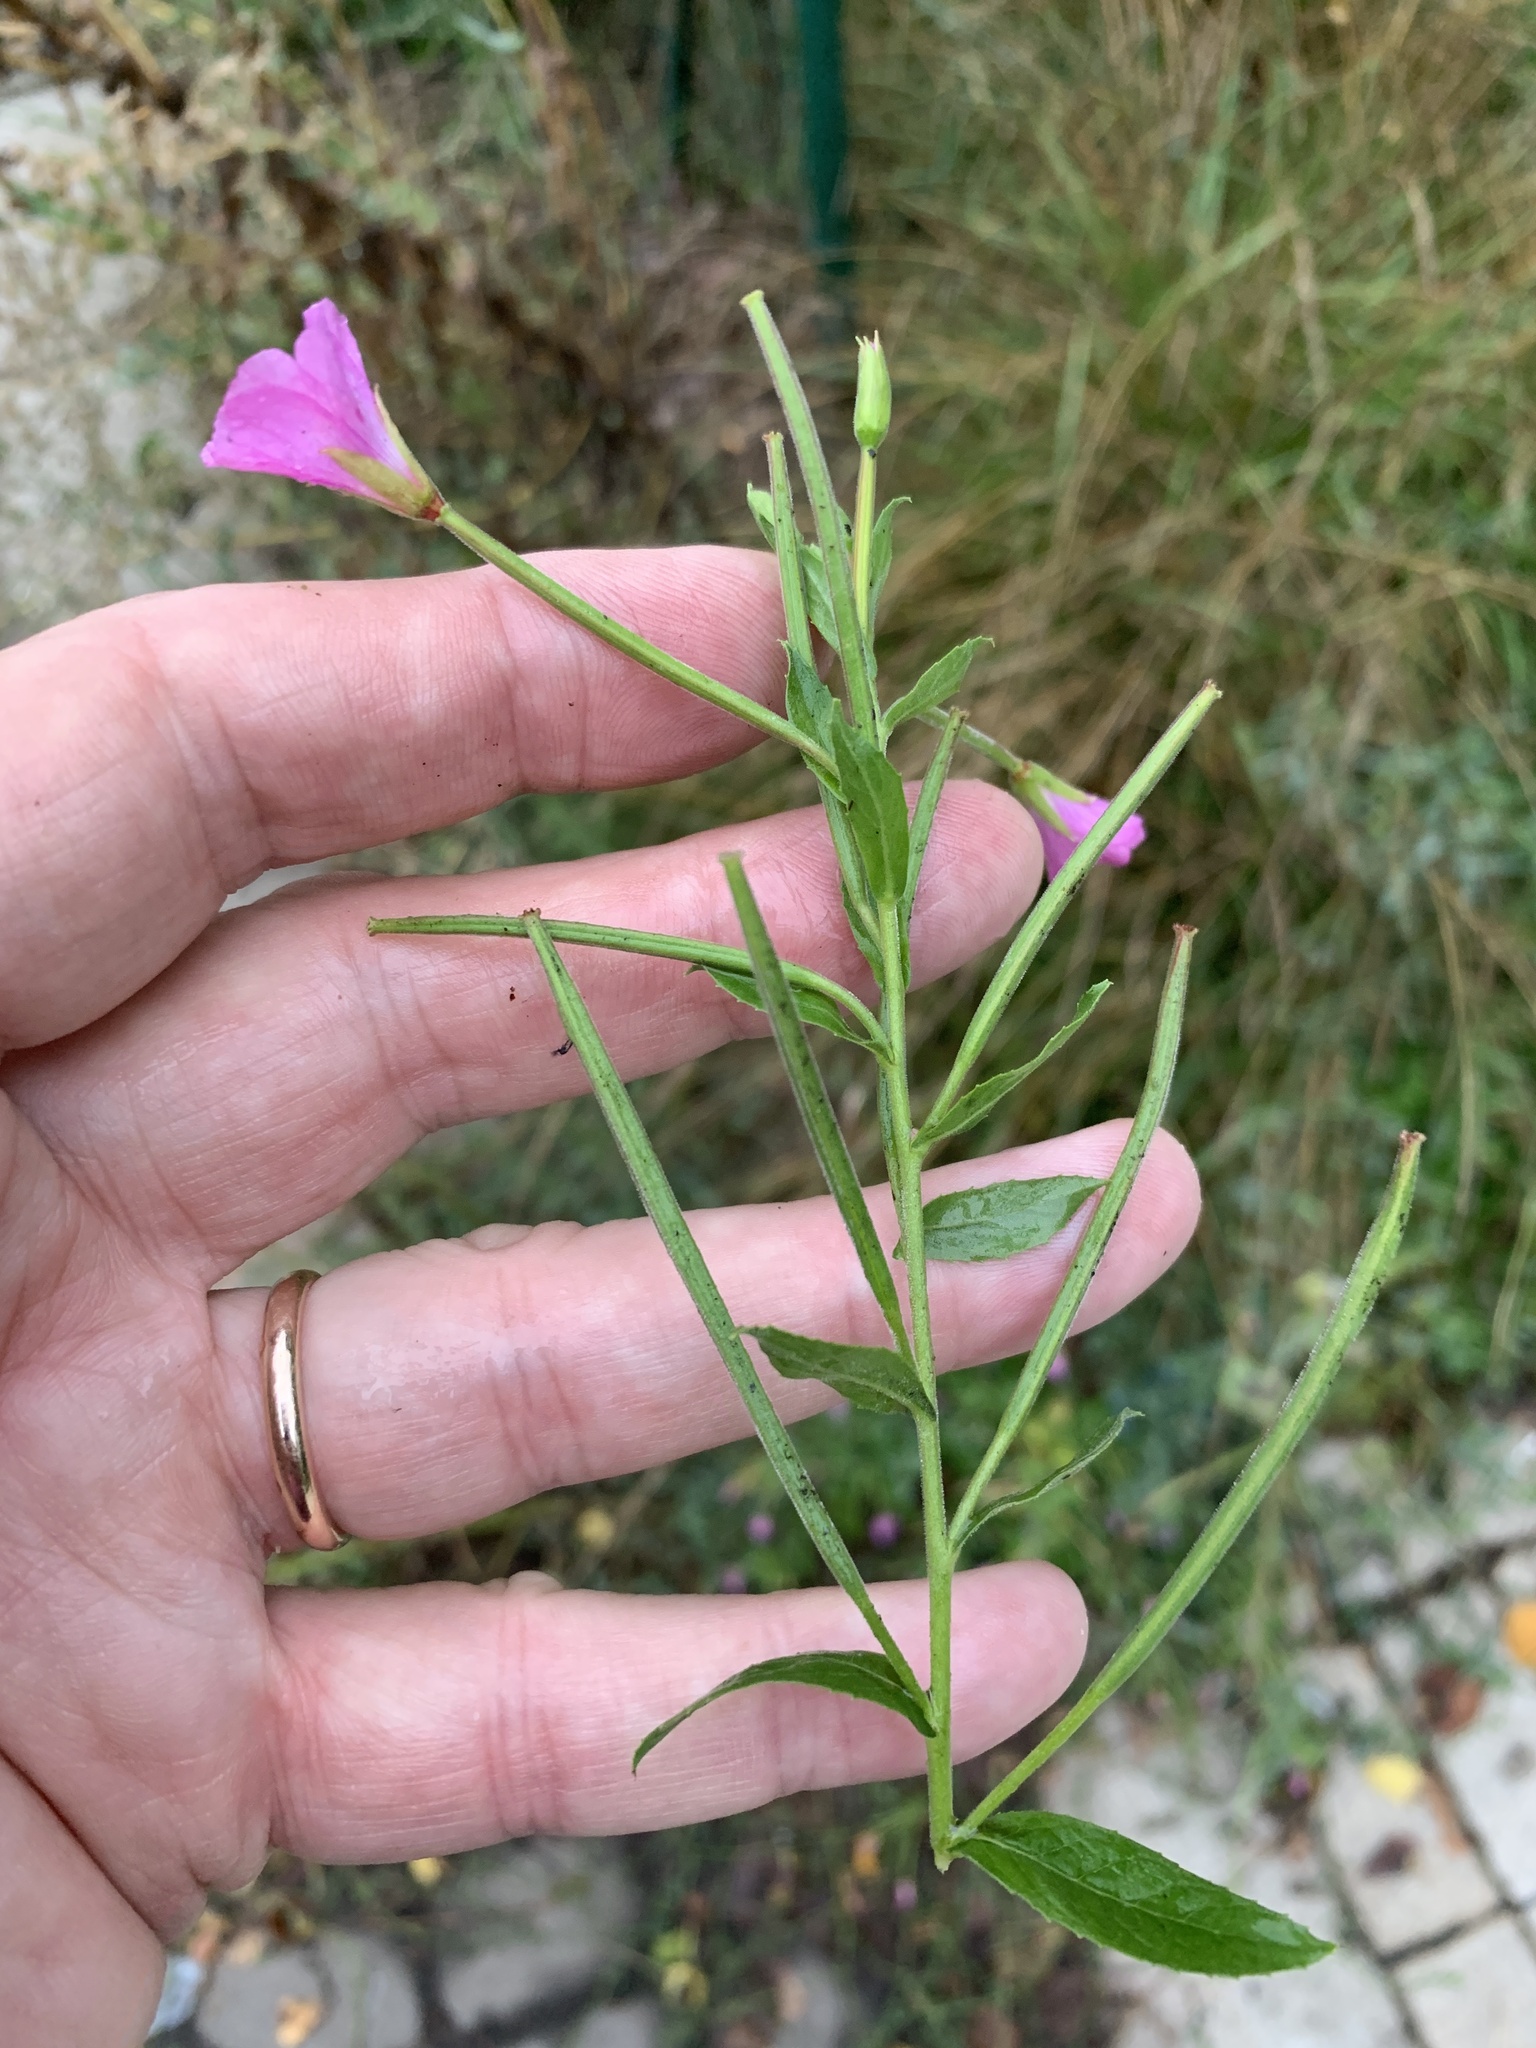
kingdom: Plantae
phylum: Tracheophyta
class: Magnoliopsida
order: Myrtales
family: Onagraceae
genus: Epilobium
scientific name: Epilobium hirsutum
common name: Great willowherb
